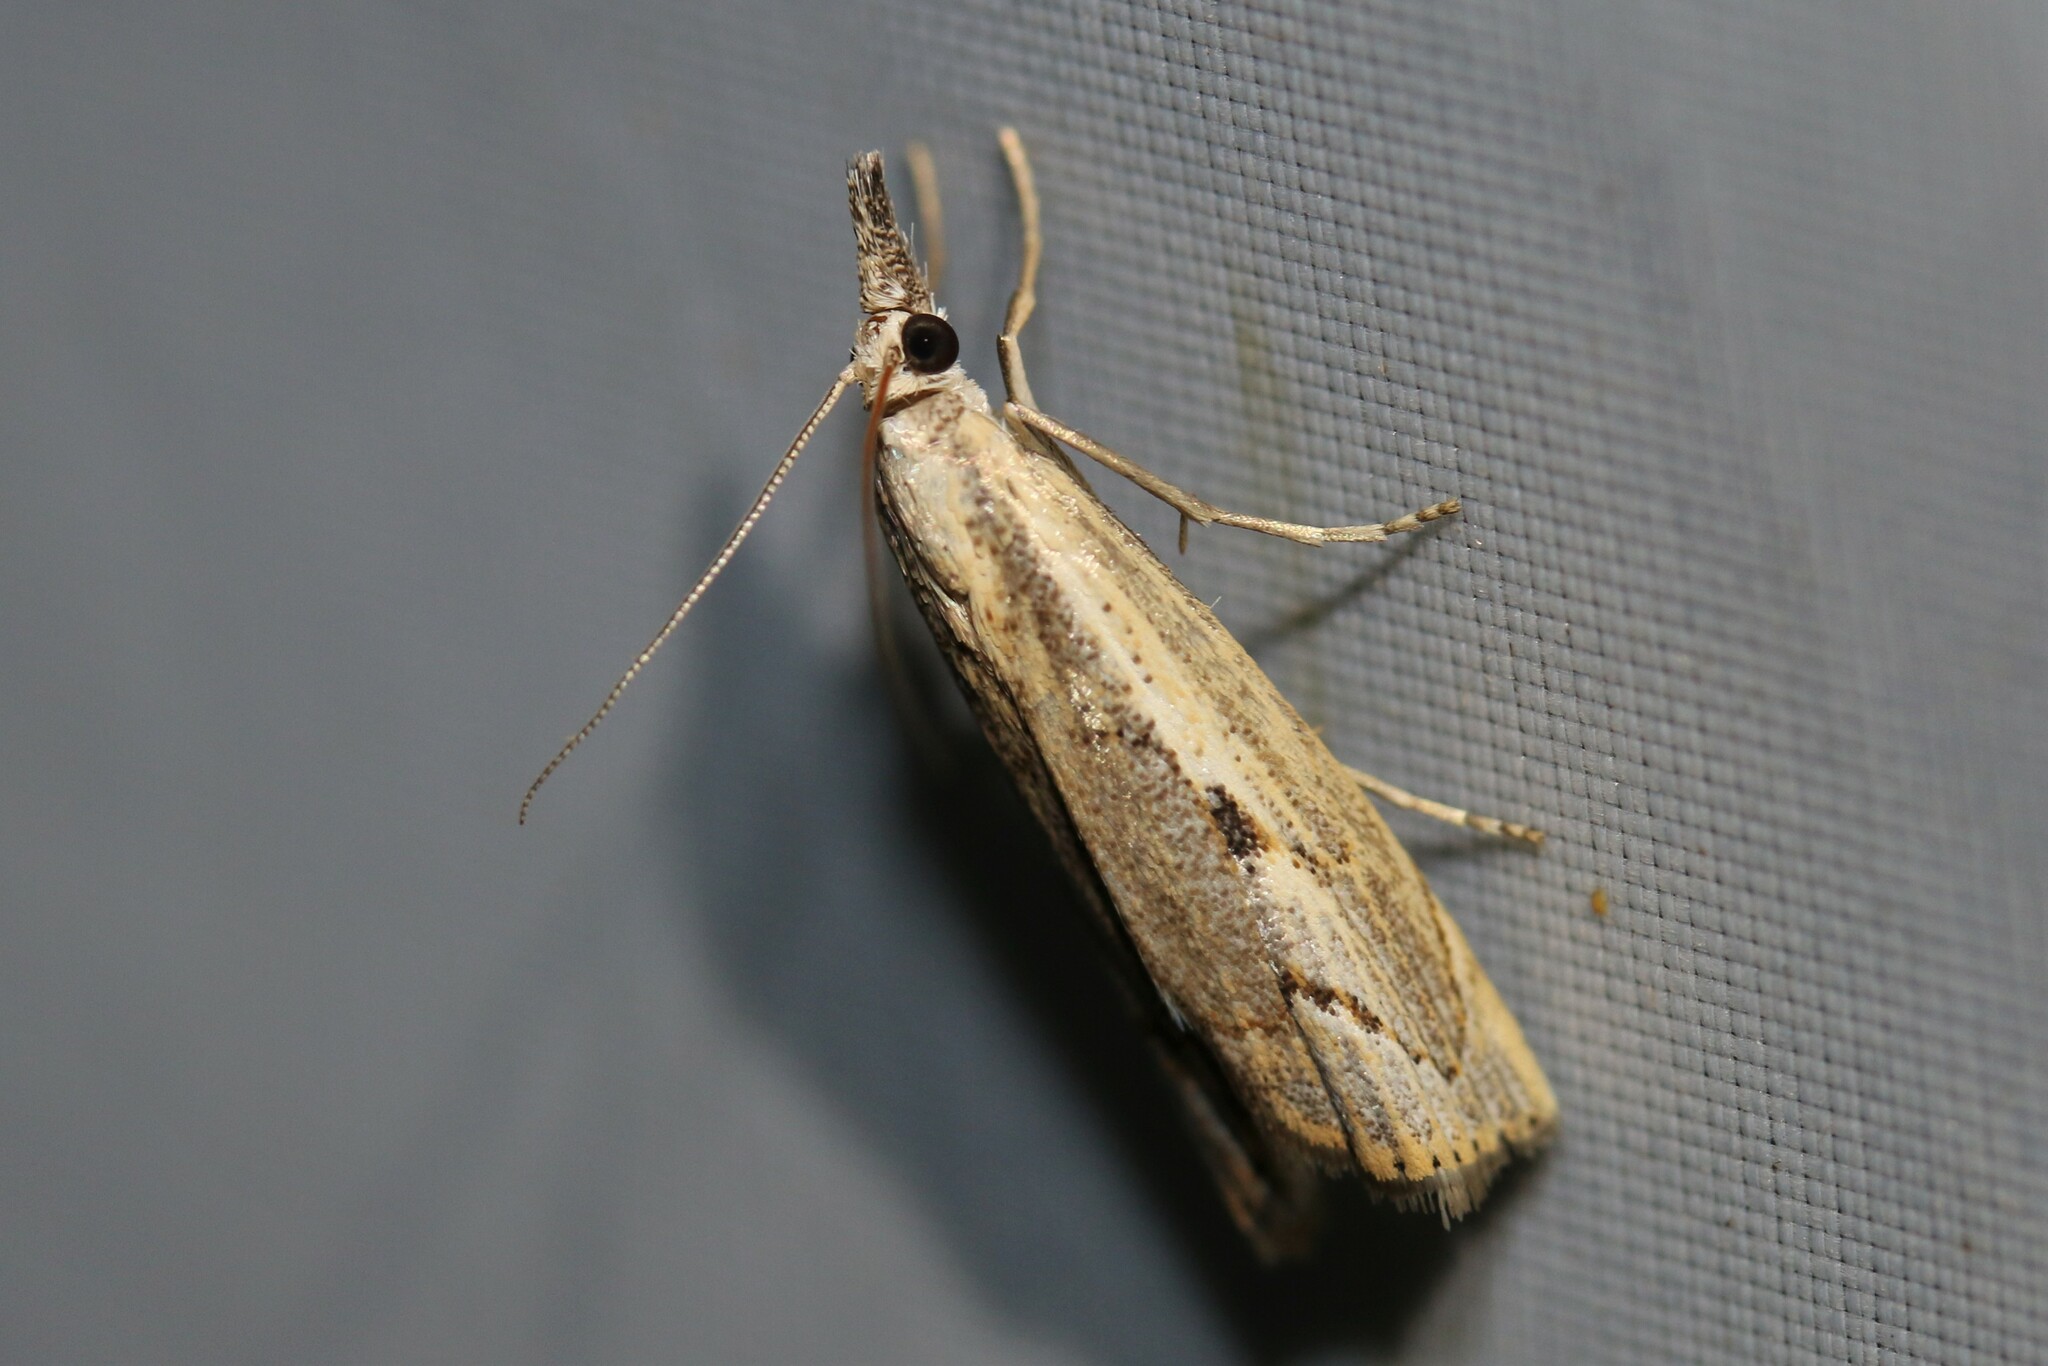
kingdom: Animalia
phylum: Arthropoda
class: Insecta
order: Lepidoptera
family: Crambidae
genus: Agriphila
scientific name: Agriphila geniculea
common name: Elbow-stripe grass-veneer
